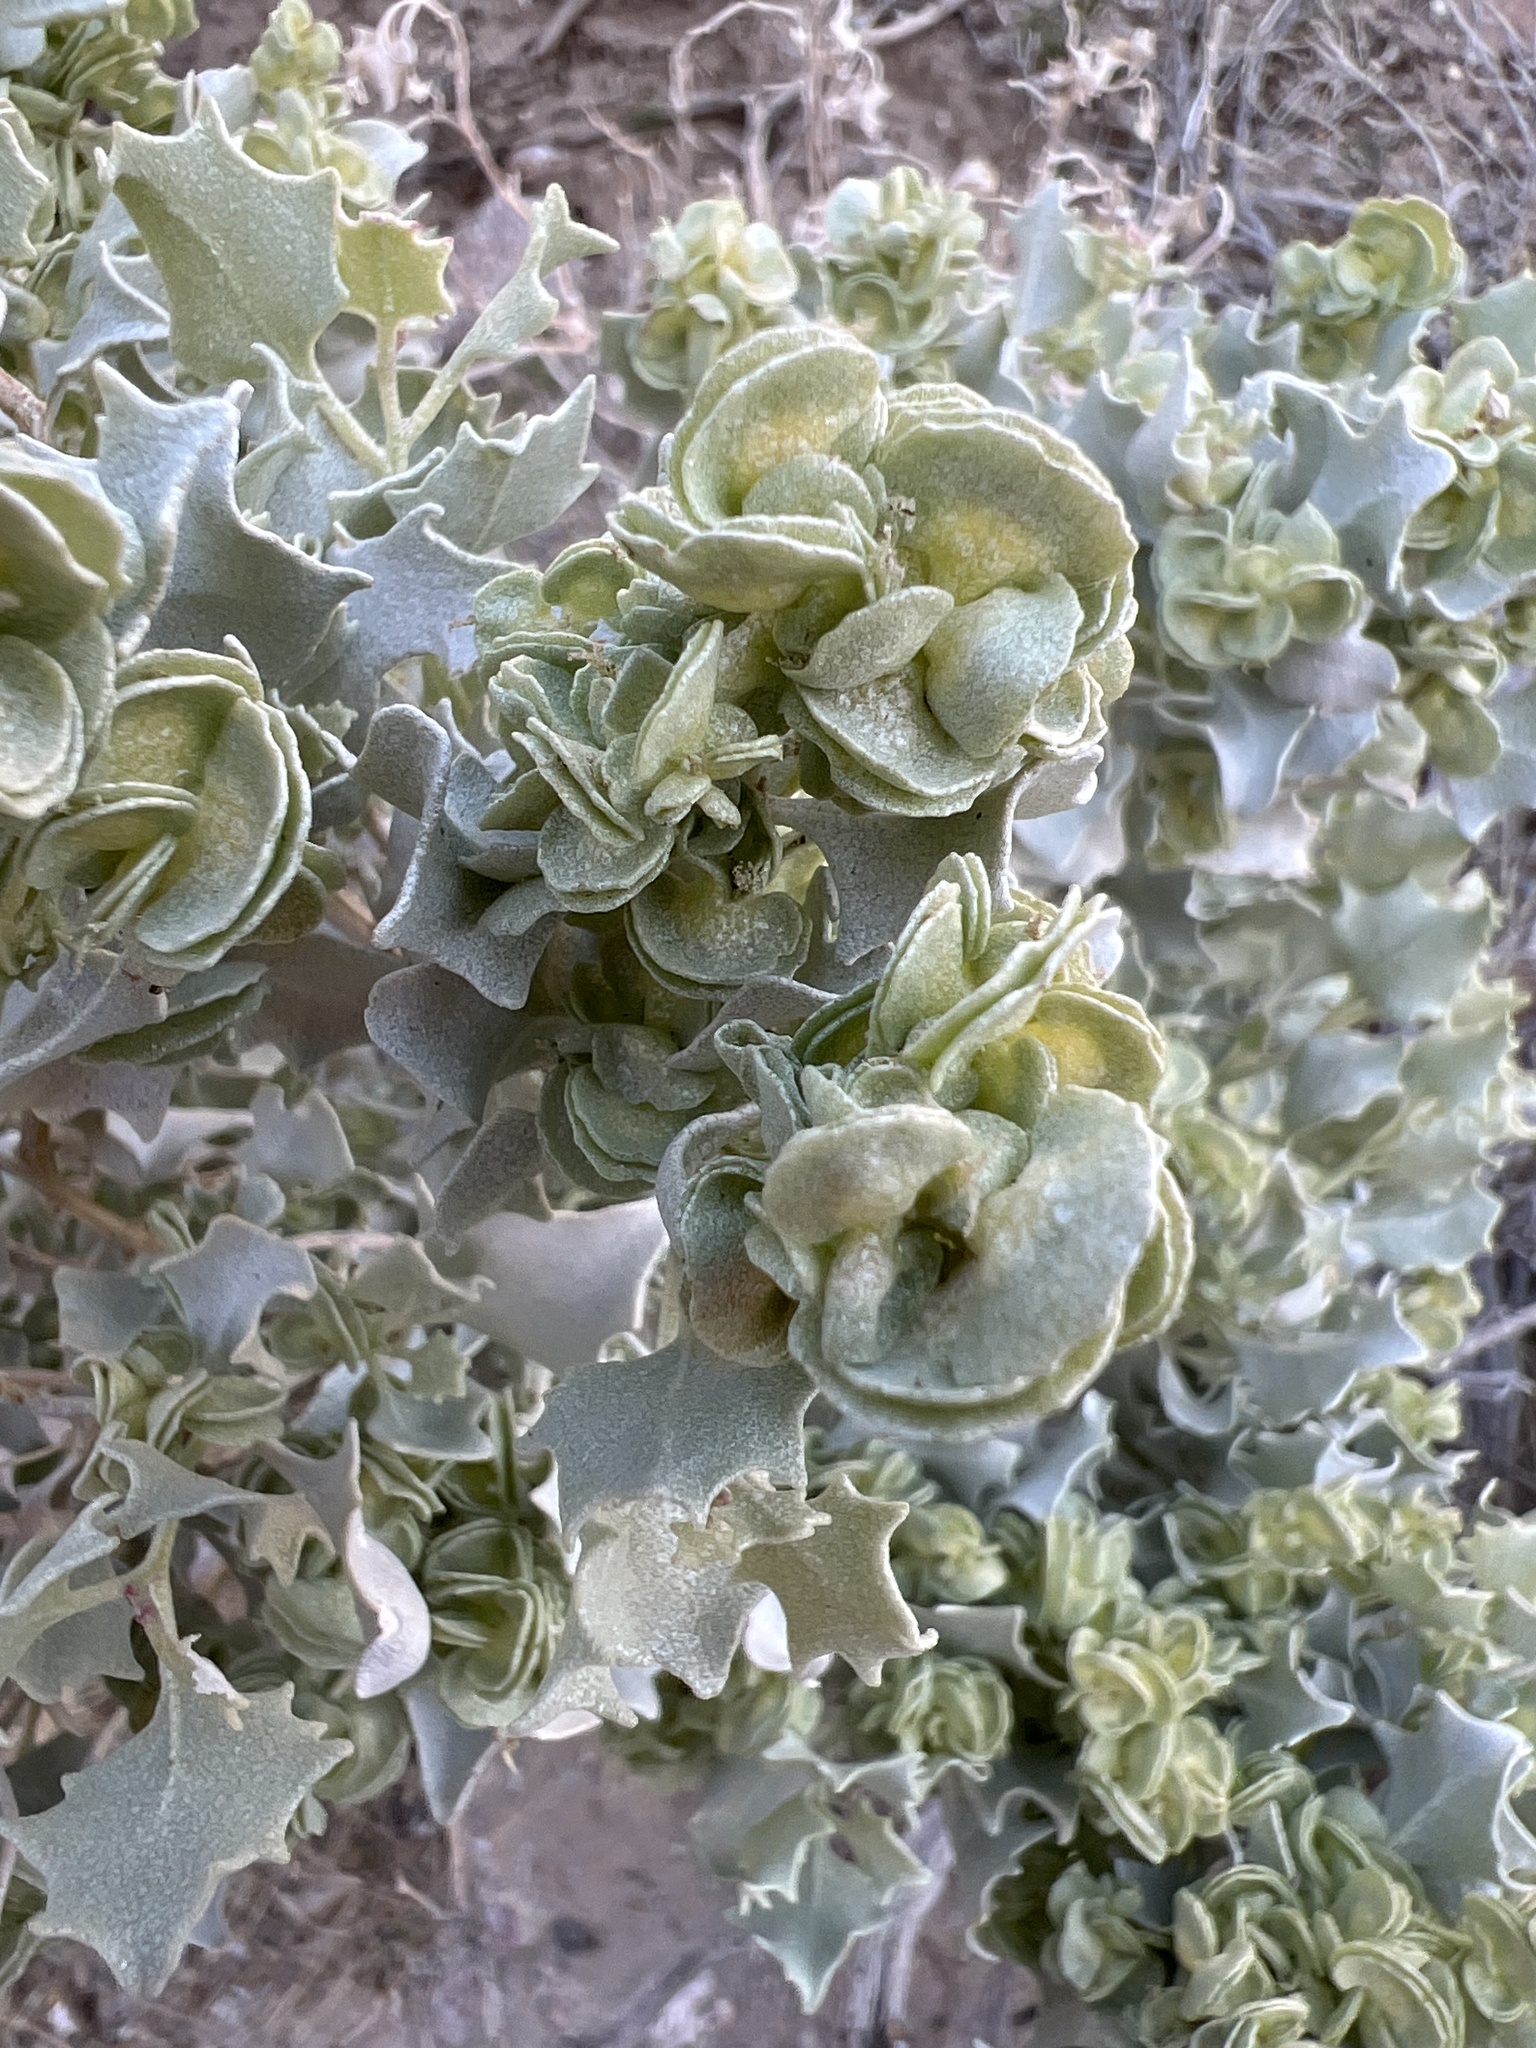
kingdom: Plantae
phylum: Tracheophyta
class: Magnoliopsida
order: Caryophyllales
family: Amaranthaceae
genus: Atriplex
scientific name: Atriplex hymenelytra
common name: Desert-holly
